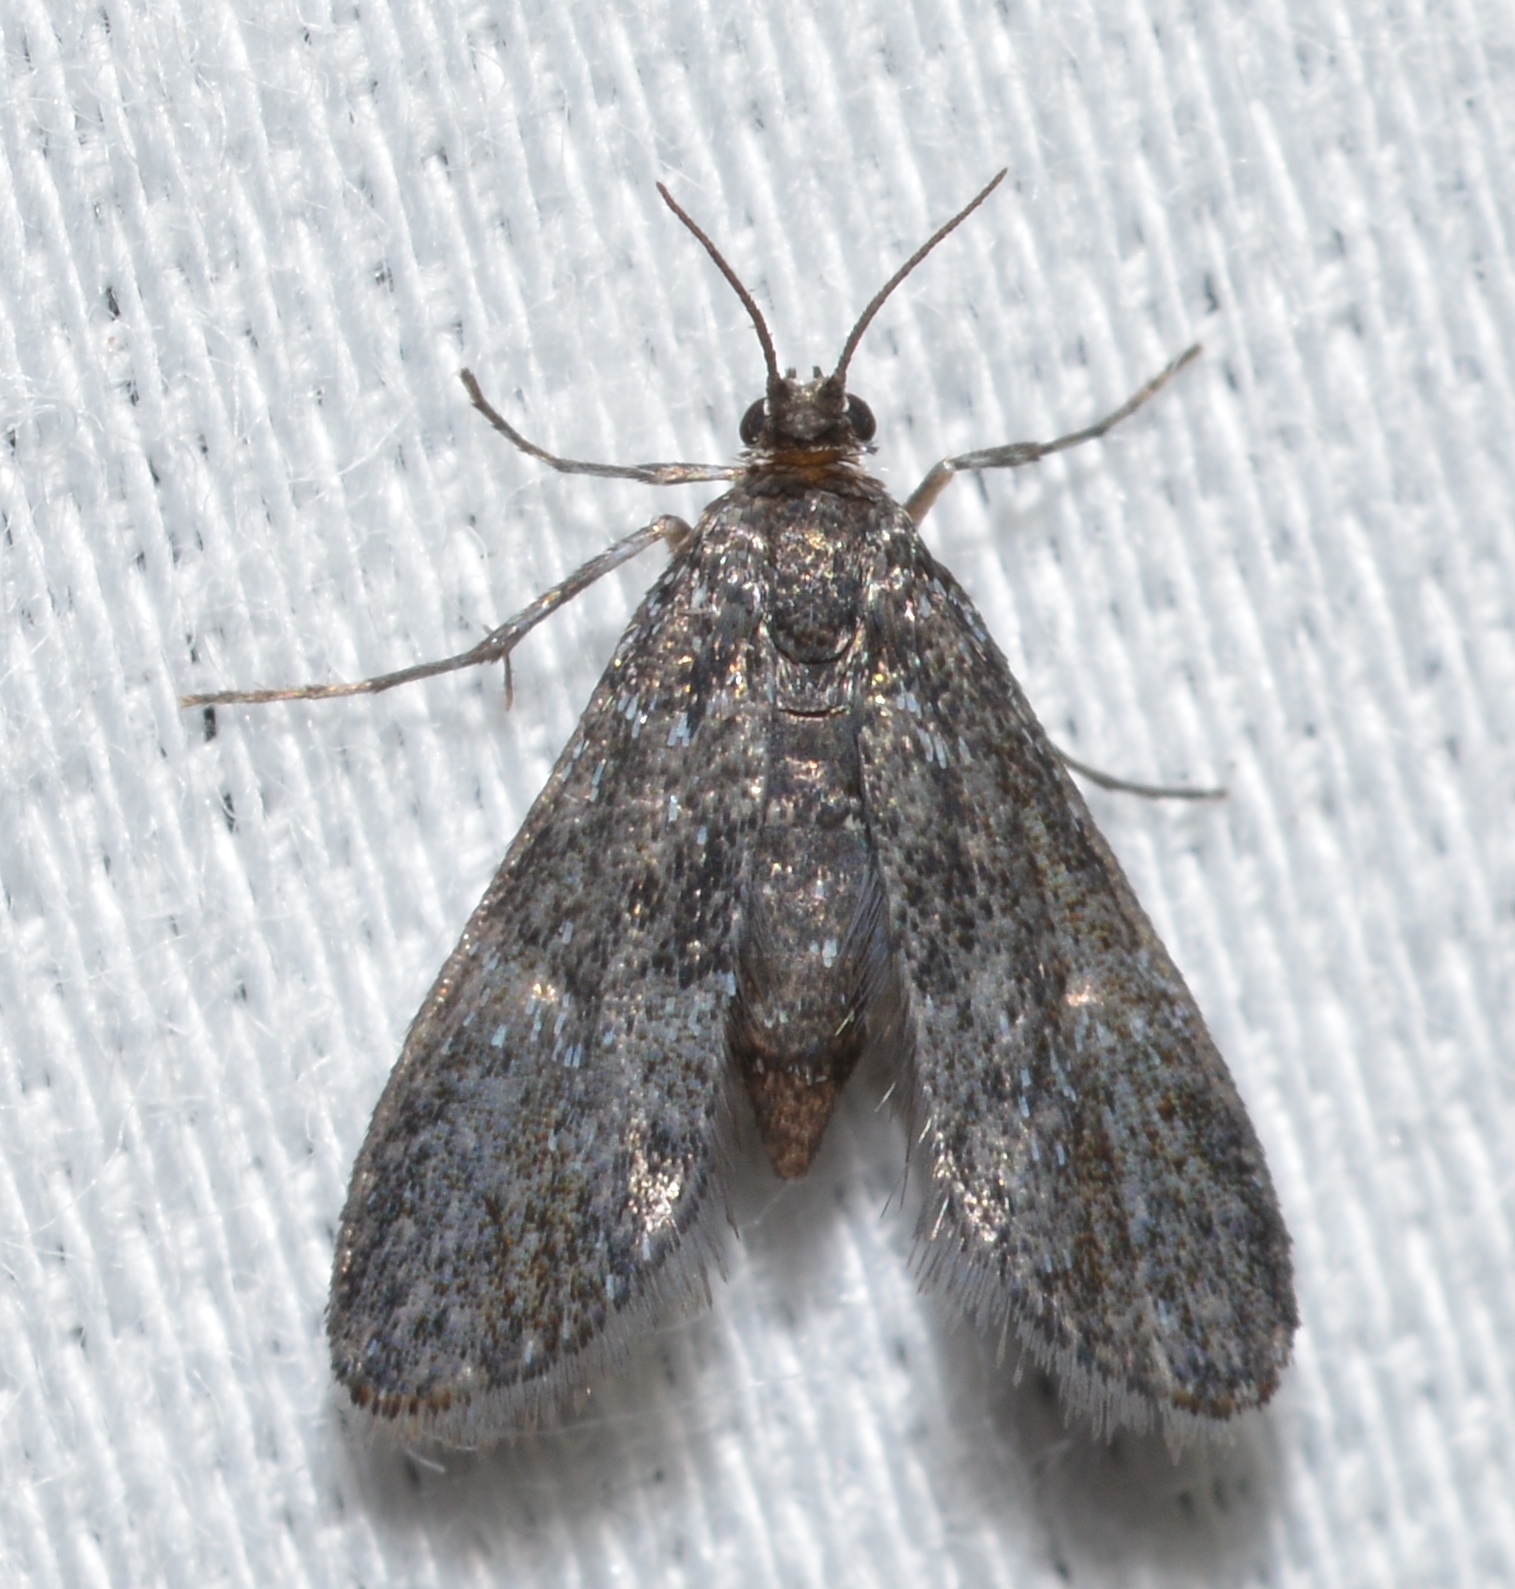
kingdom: Animalia
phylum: Arthropoda
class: Insecta
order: Lepidoptera
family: Crambidae
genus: Elophila
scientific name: Elophila tinealis
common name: Black duckweed moth
